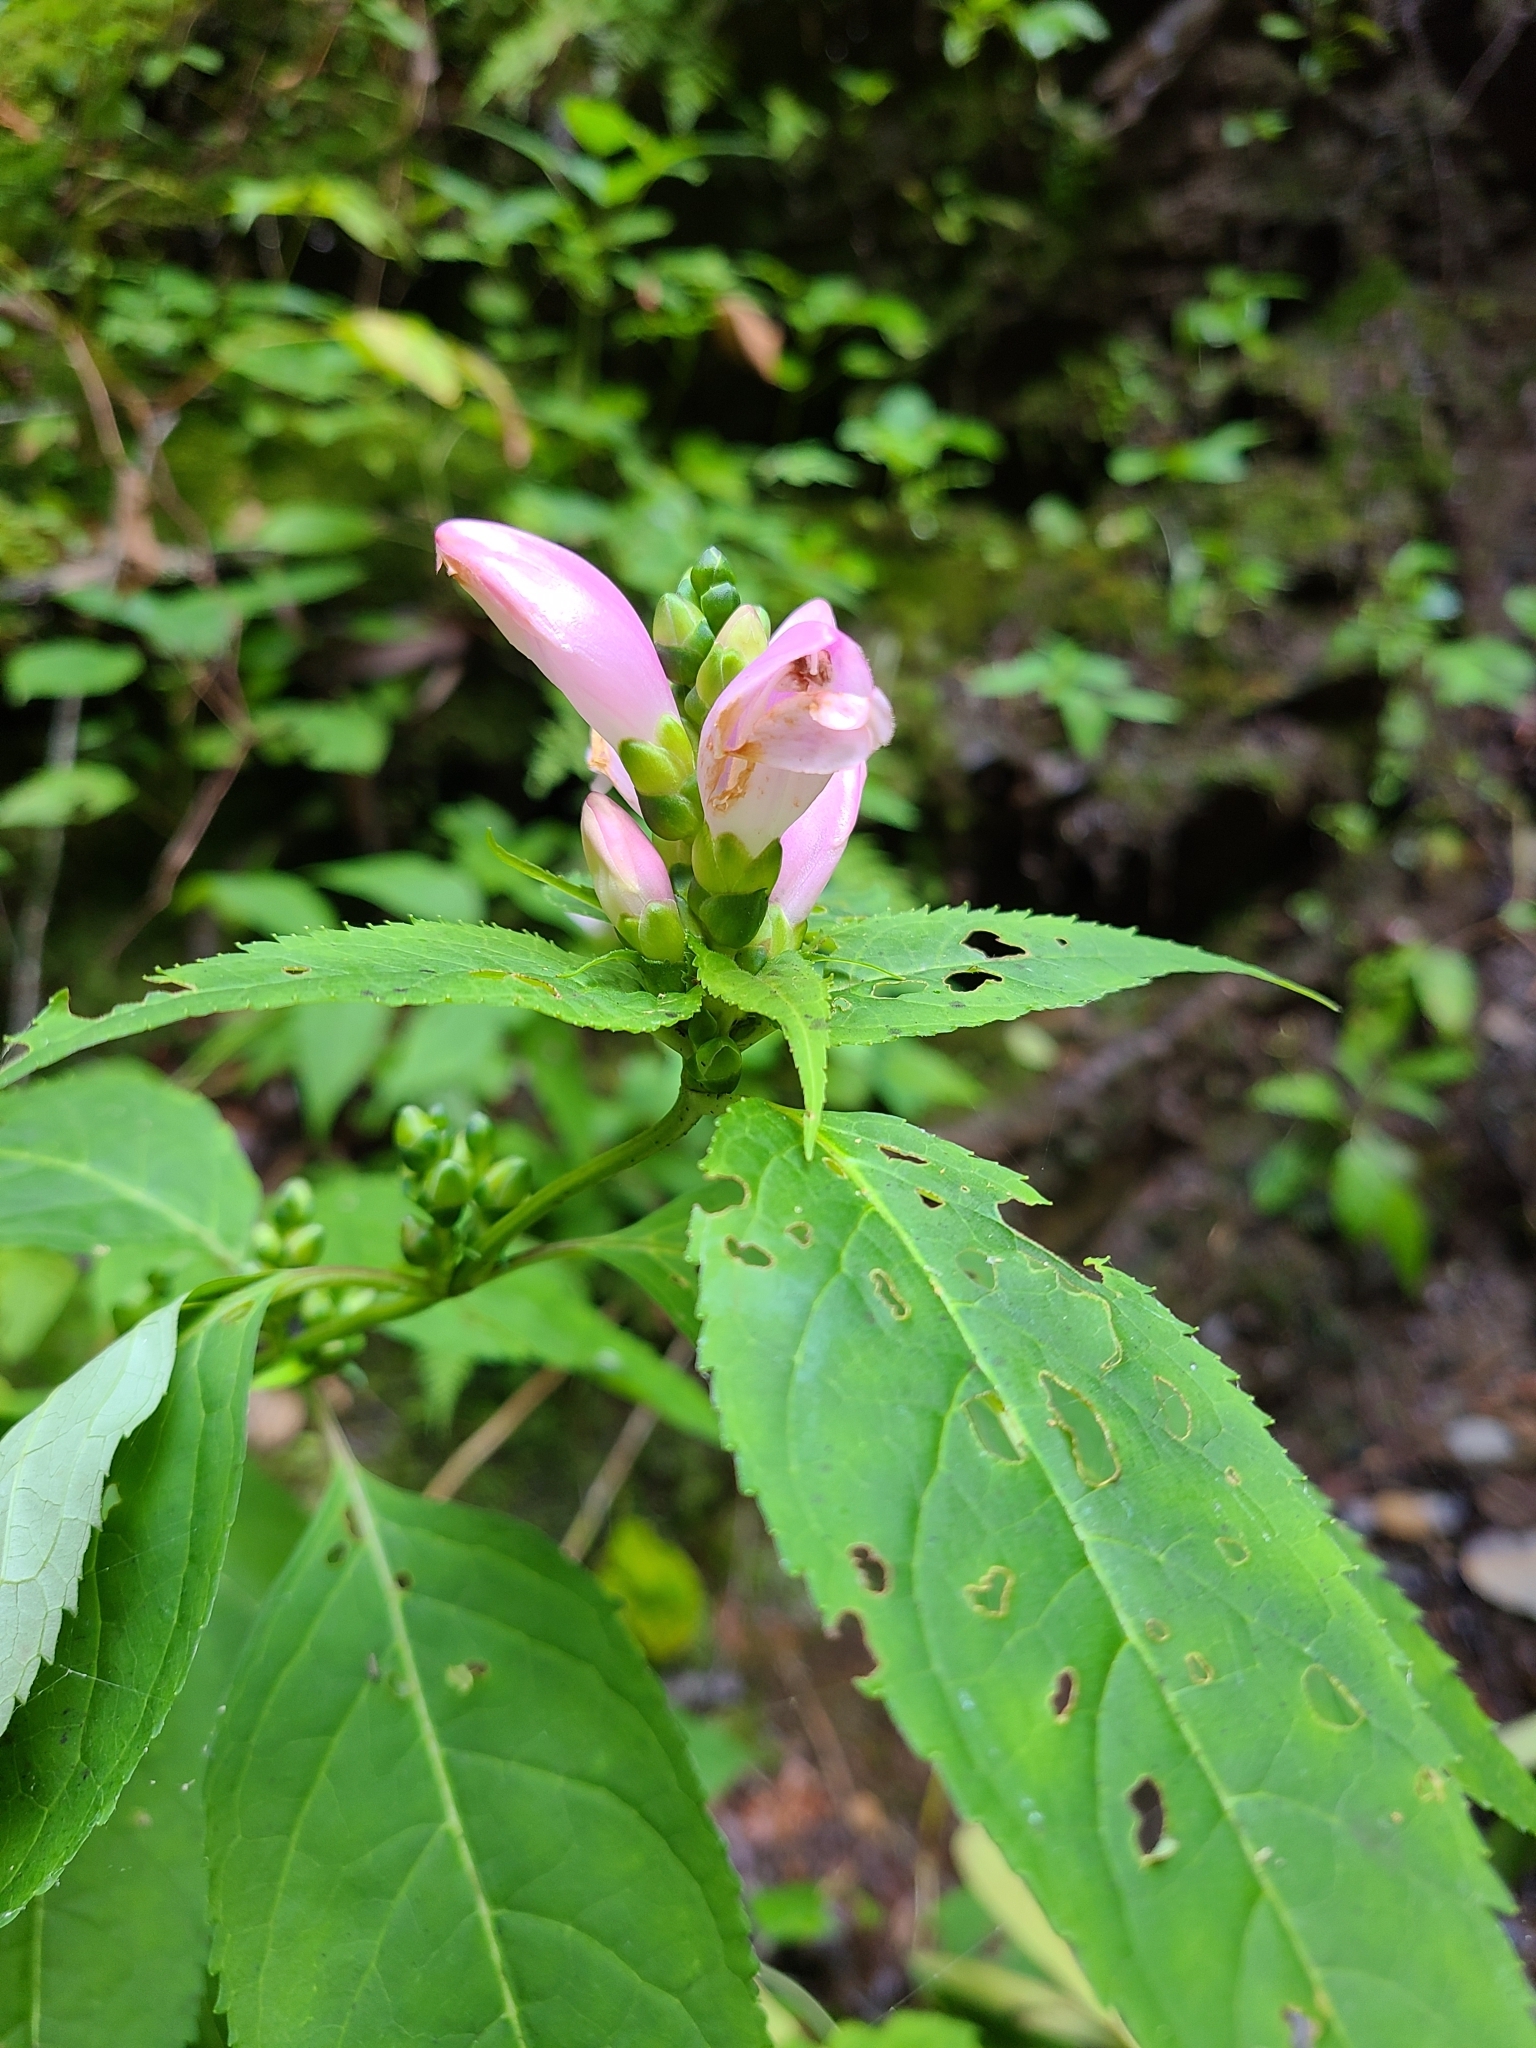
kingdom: Plantae
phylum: Tracheophyta
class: Magnoliopsida
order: Lamiales
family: Plantaginaceae
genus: Chelone
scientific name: Chelone lyonii
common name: Pink turtlehead
